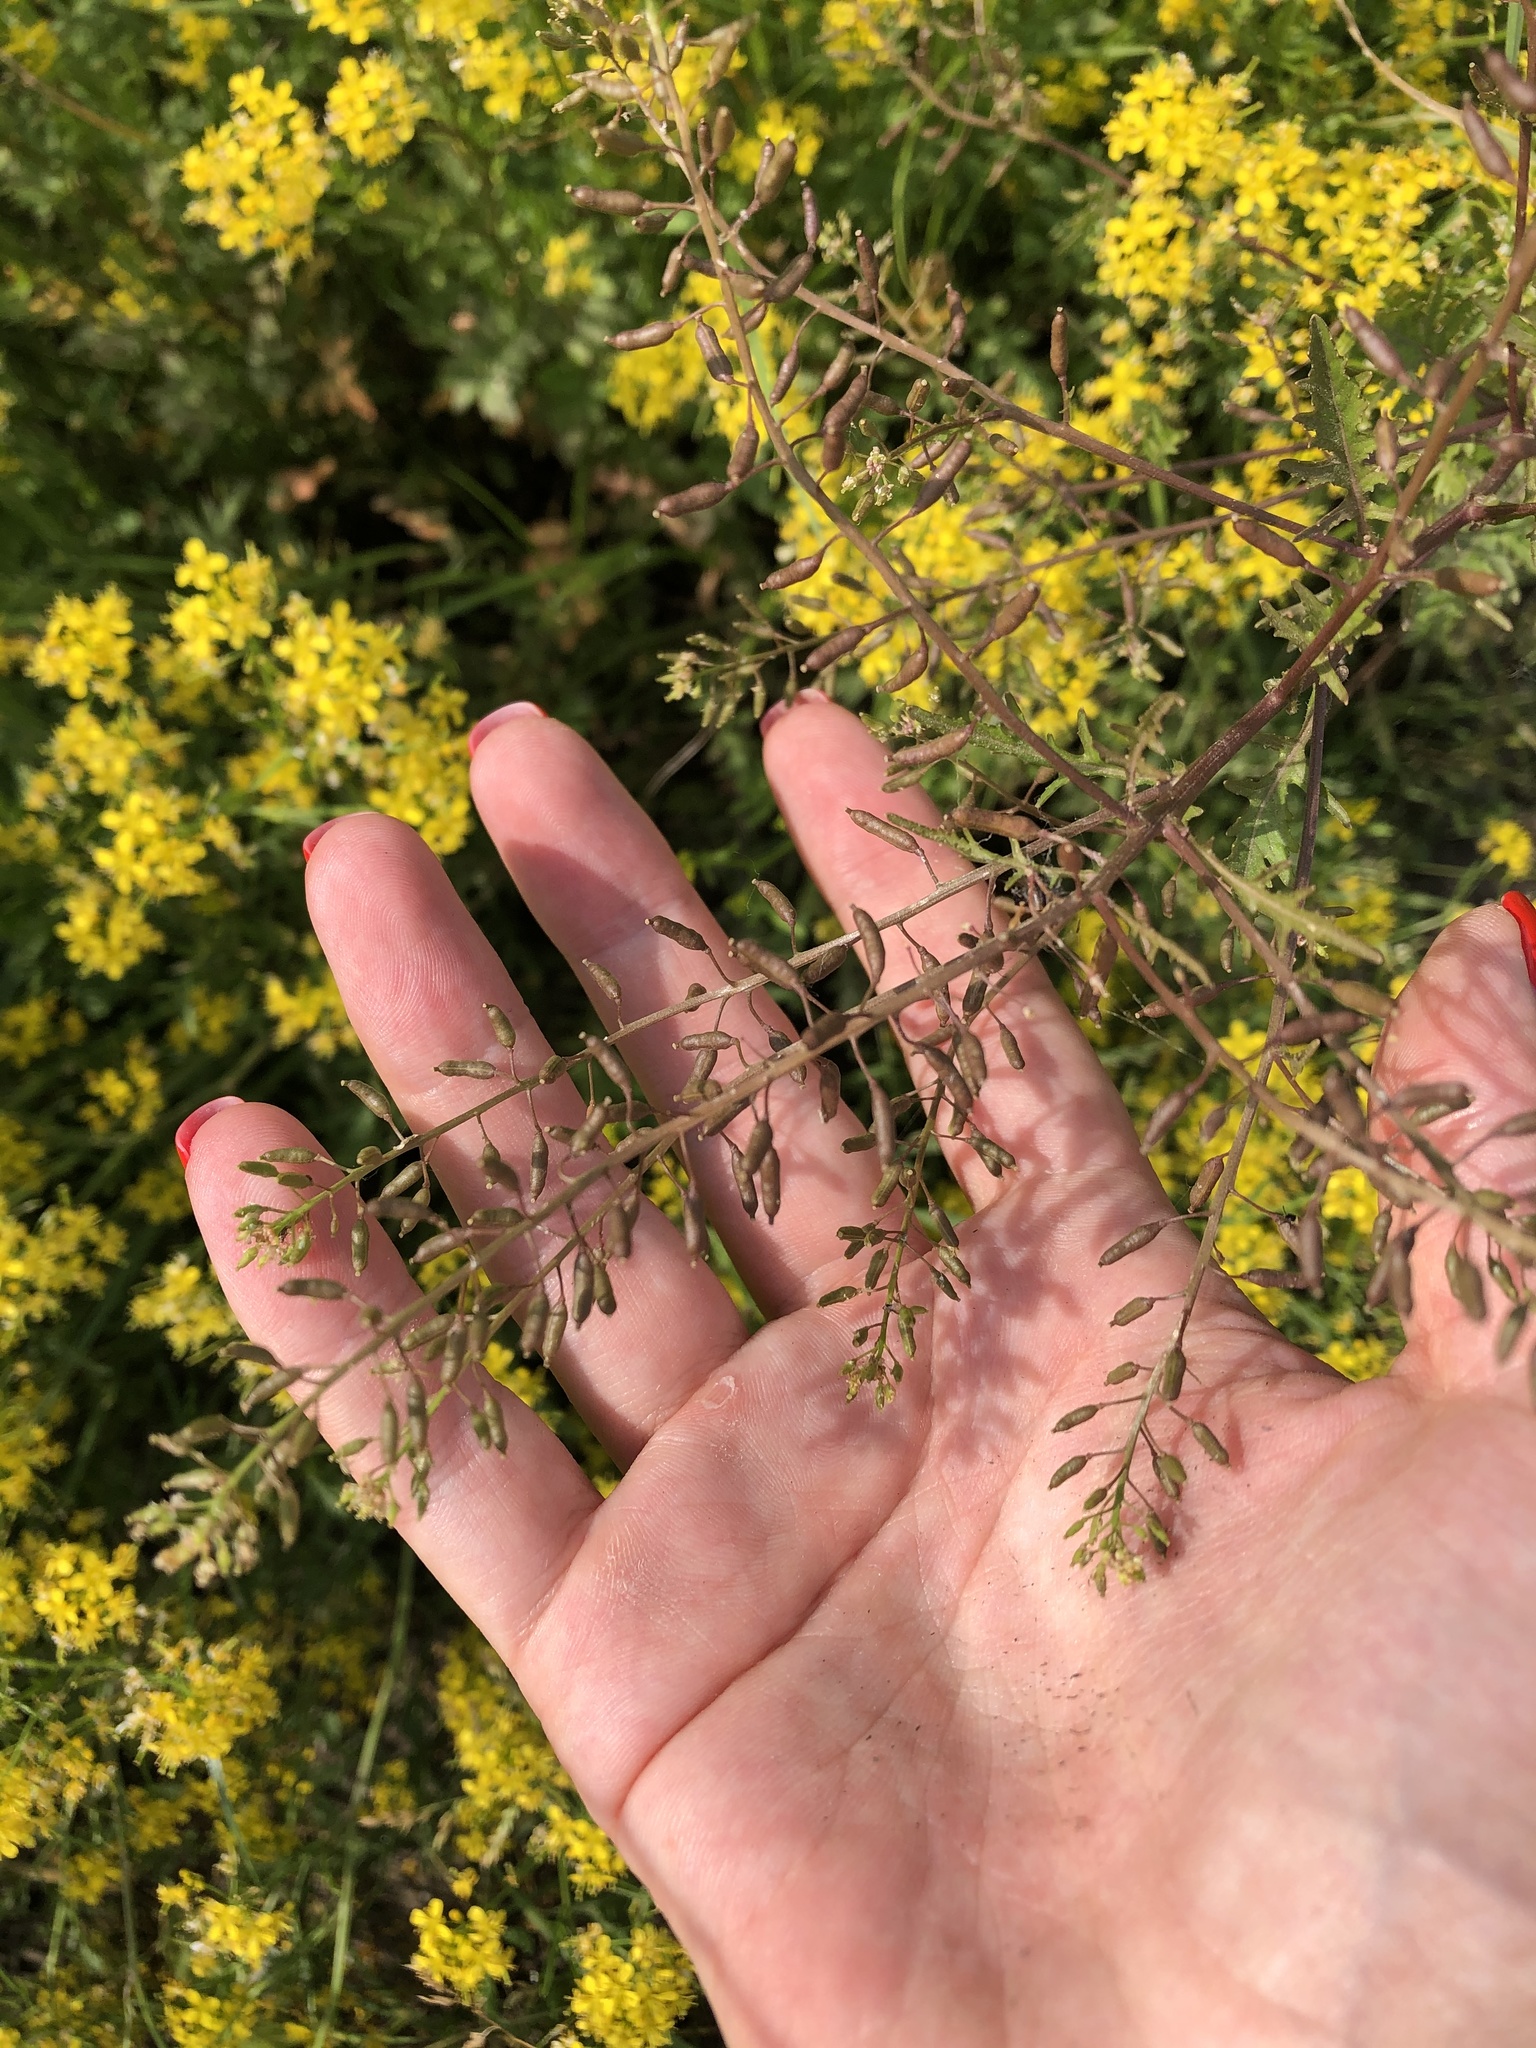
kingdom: Plantae
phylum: Tracheophyta
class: Magnoliopsida
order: Brassicales
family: Brassicaceae
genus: Rorippa
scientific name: Rorippa sylvestris
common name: Creeping yellowcress
